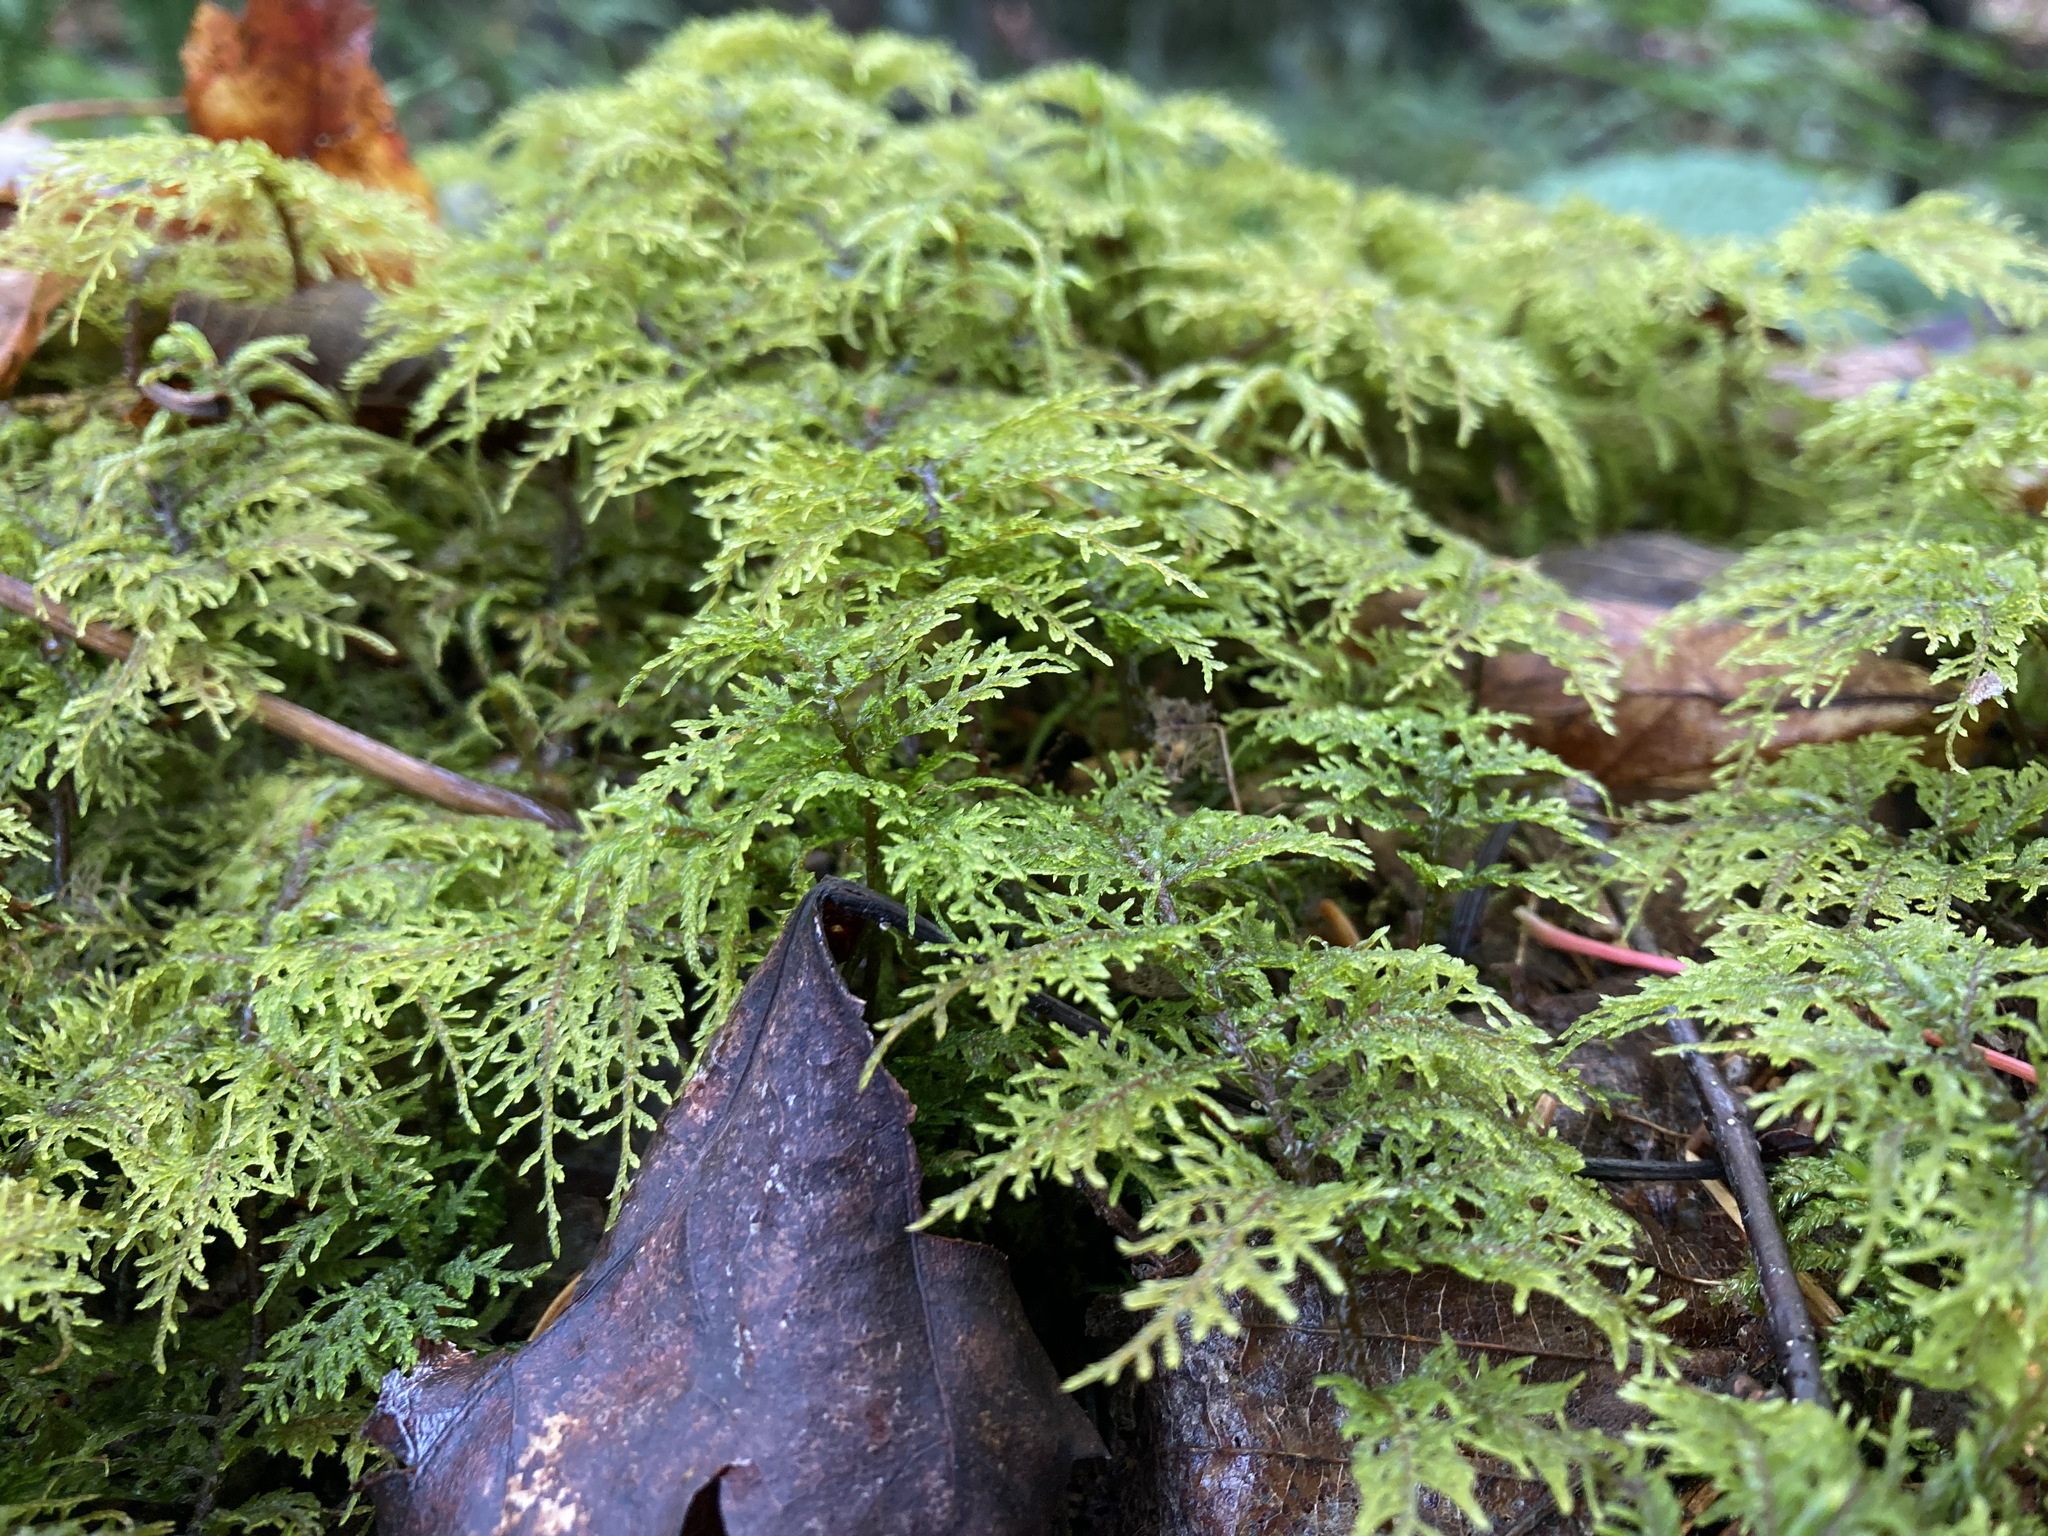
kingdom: Plantae
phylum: Bryophyta
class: Bryopsida
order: Hypnales
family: Hylocomiaceae
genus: Hylocomium
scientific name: Hylocomium splendens
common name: Stairstep moss
